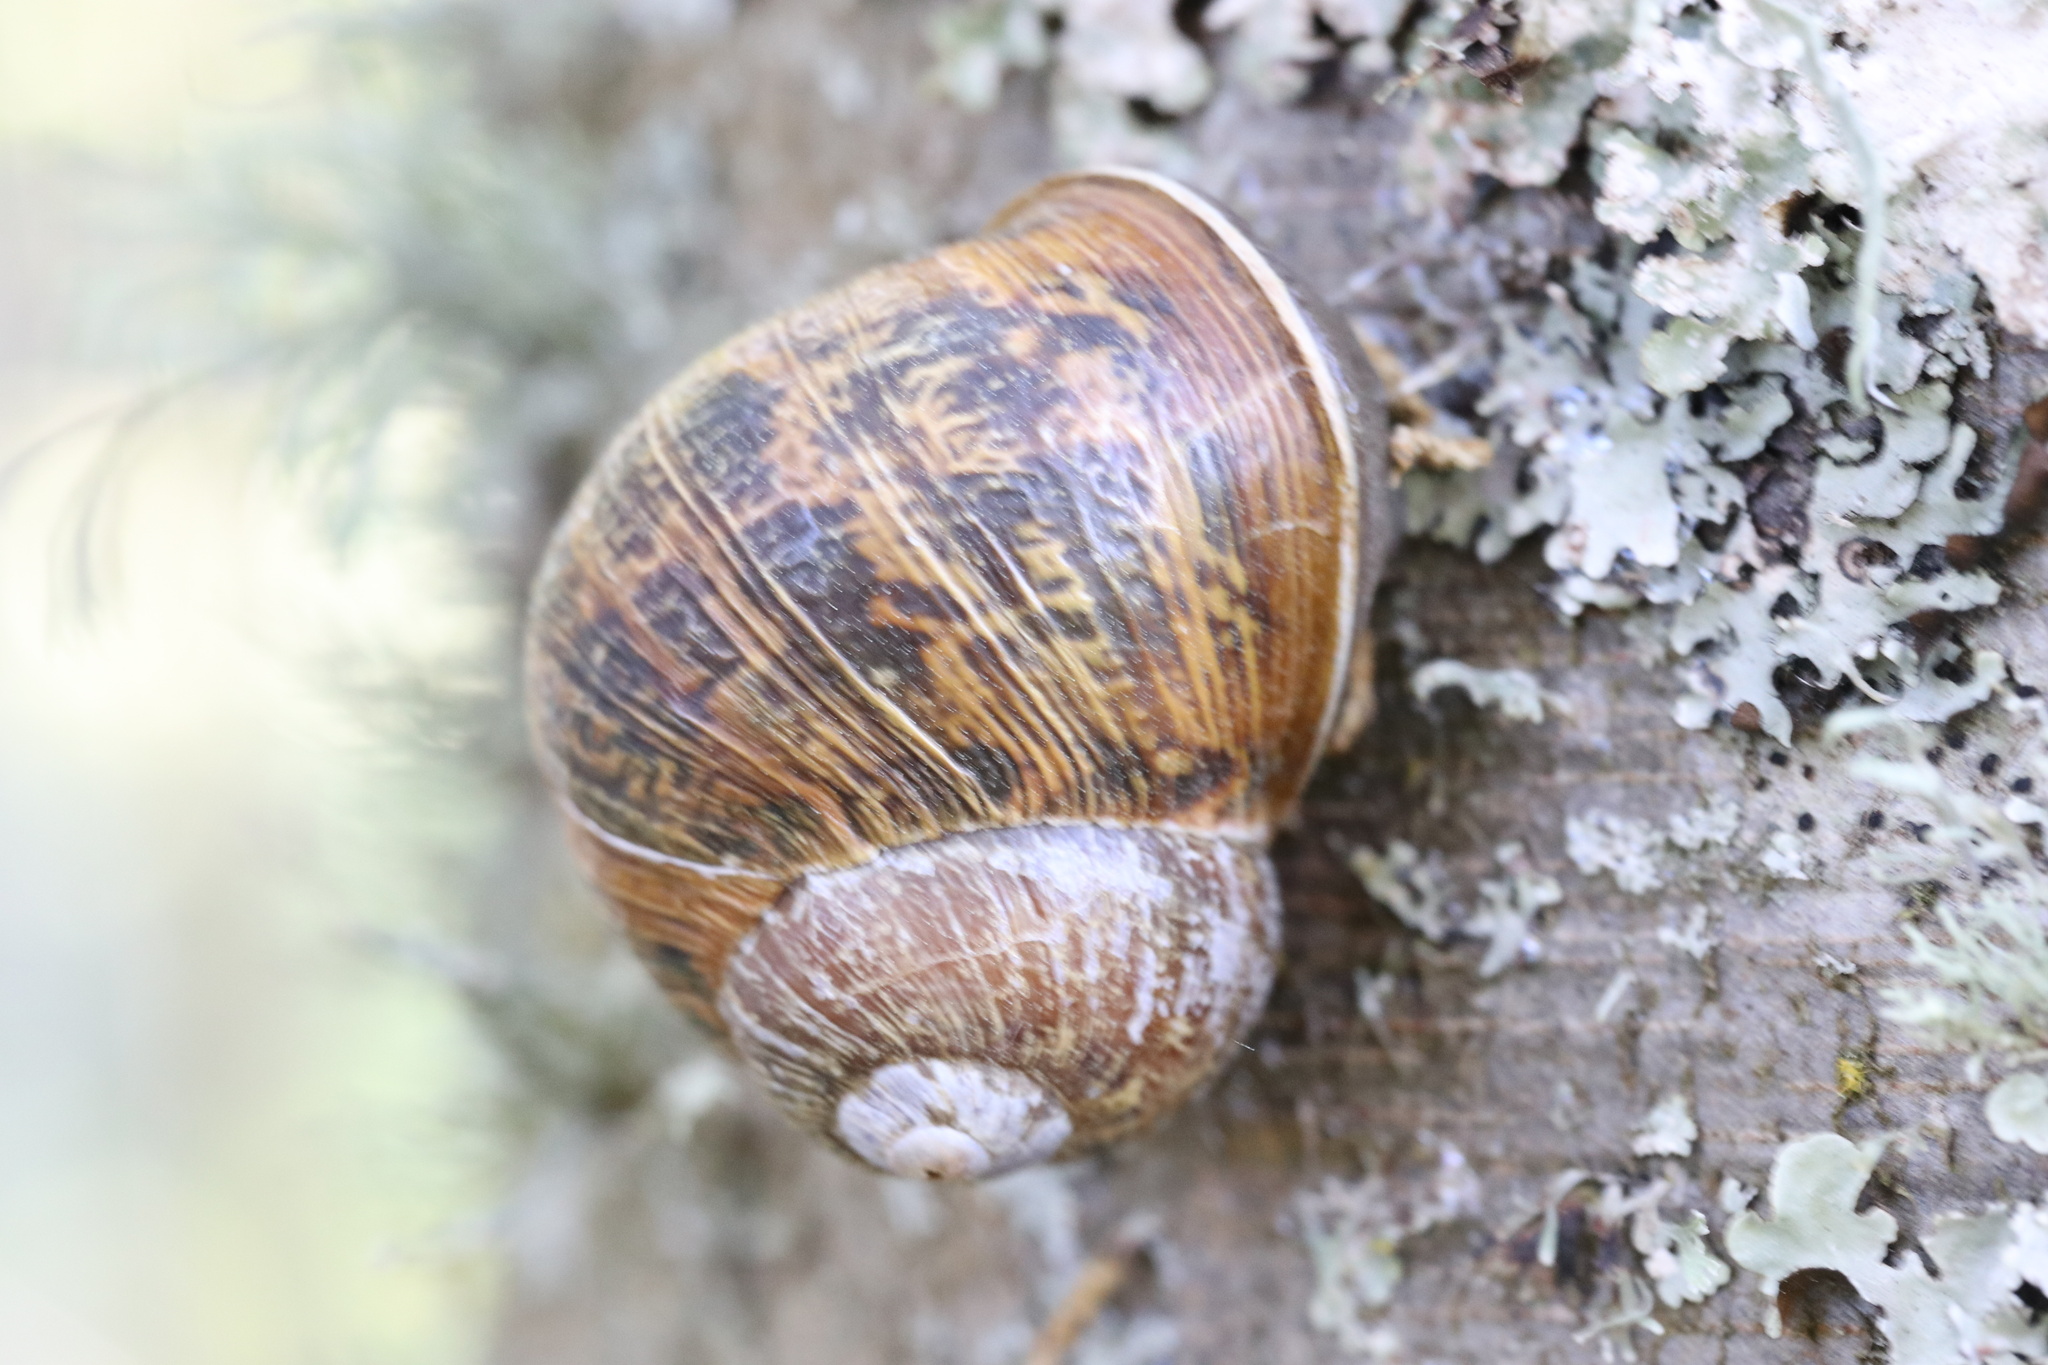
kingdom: Animalia
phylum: Mollusca
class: Gastropoda
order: Stylommatophora
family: Helicidae
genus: Cornu
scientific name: Cornu aspersum
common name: Brown garden snail
